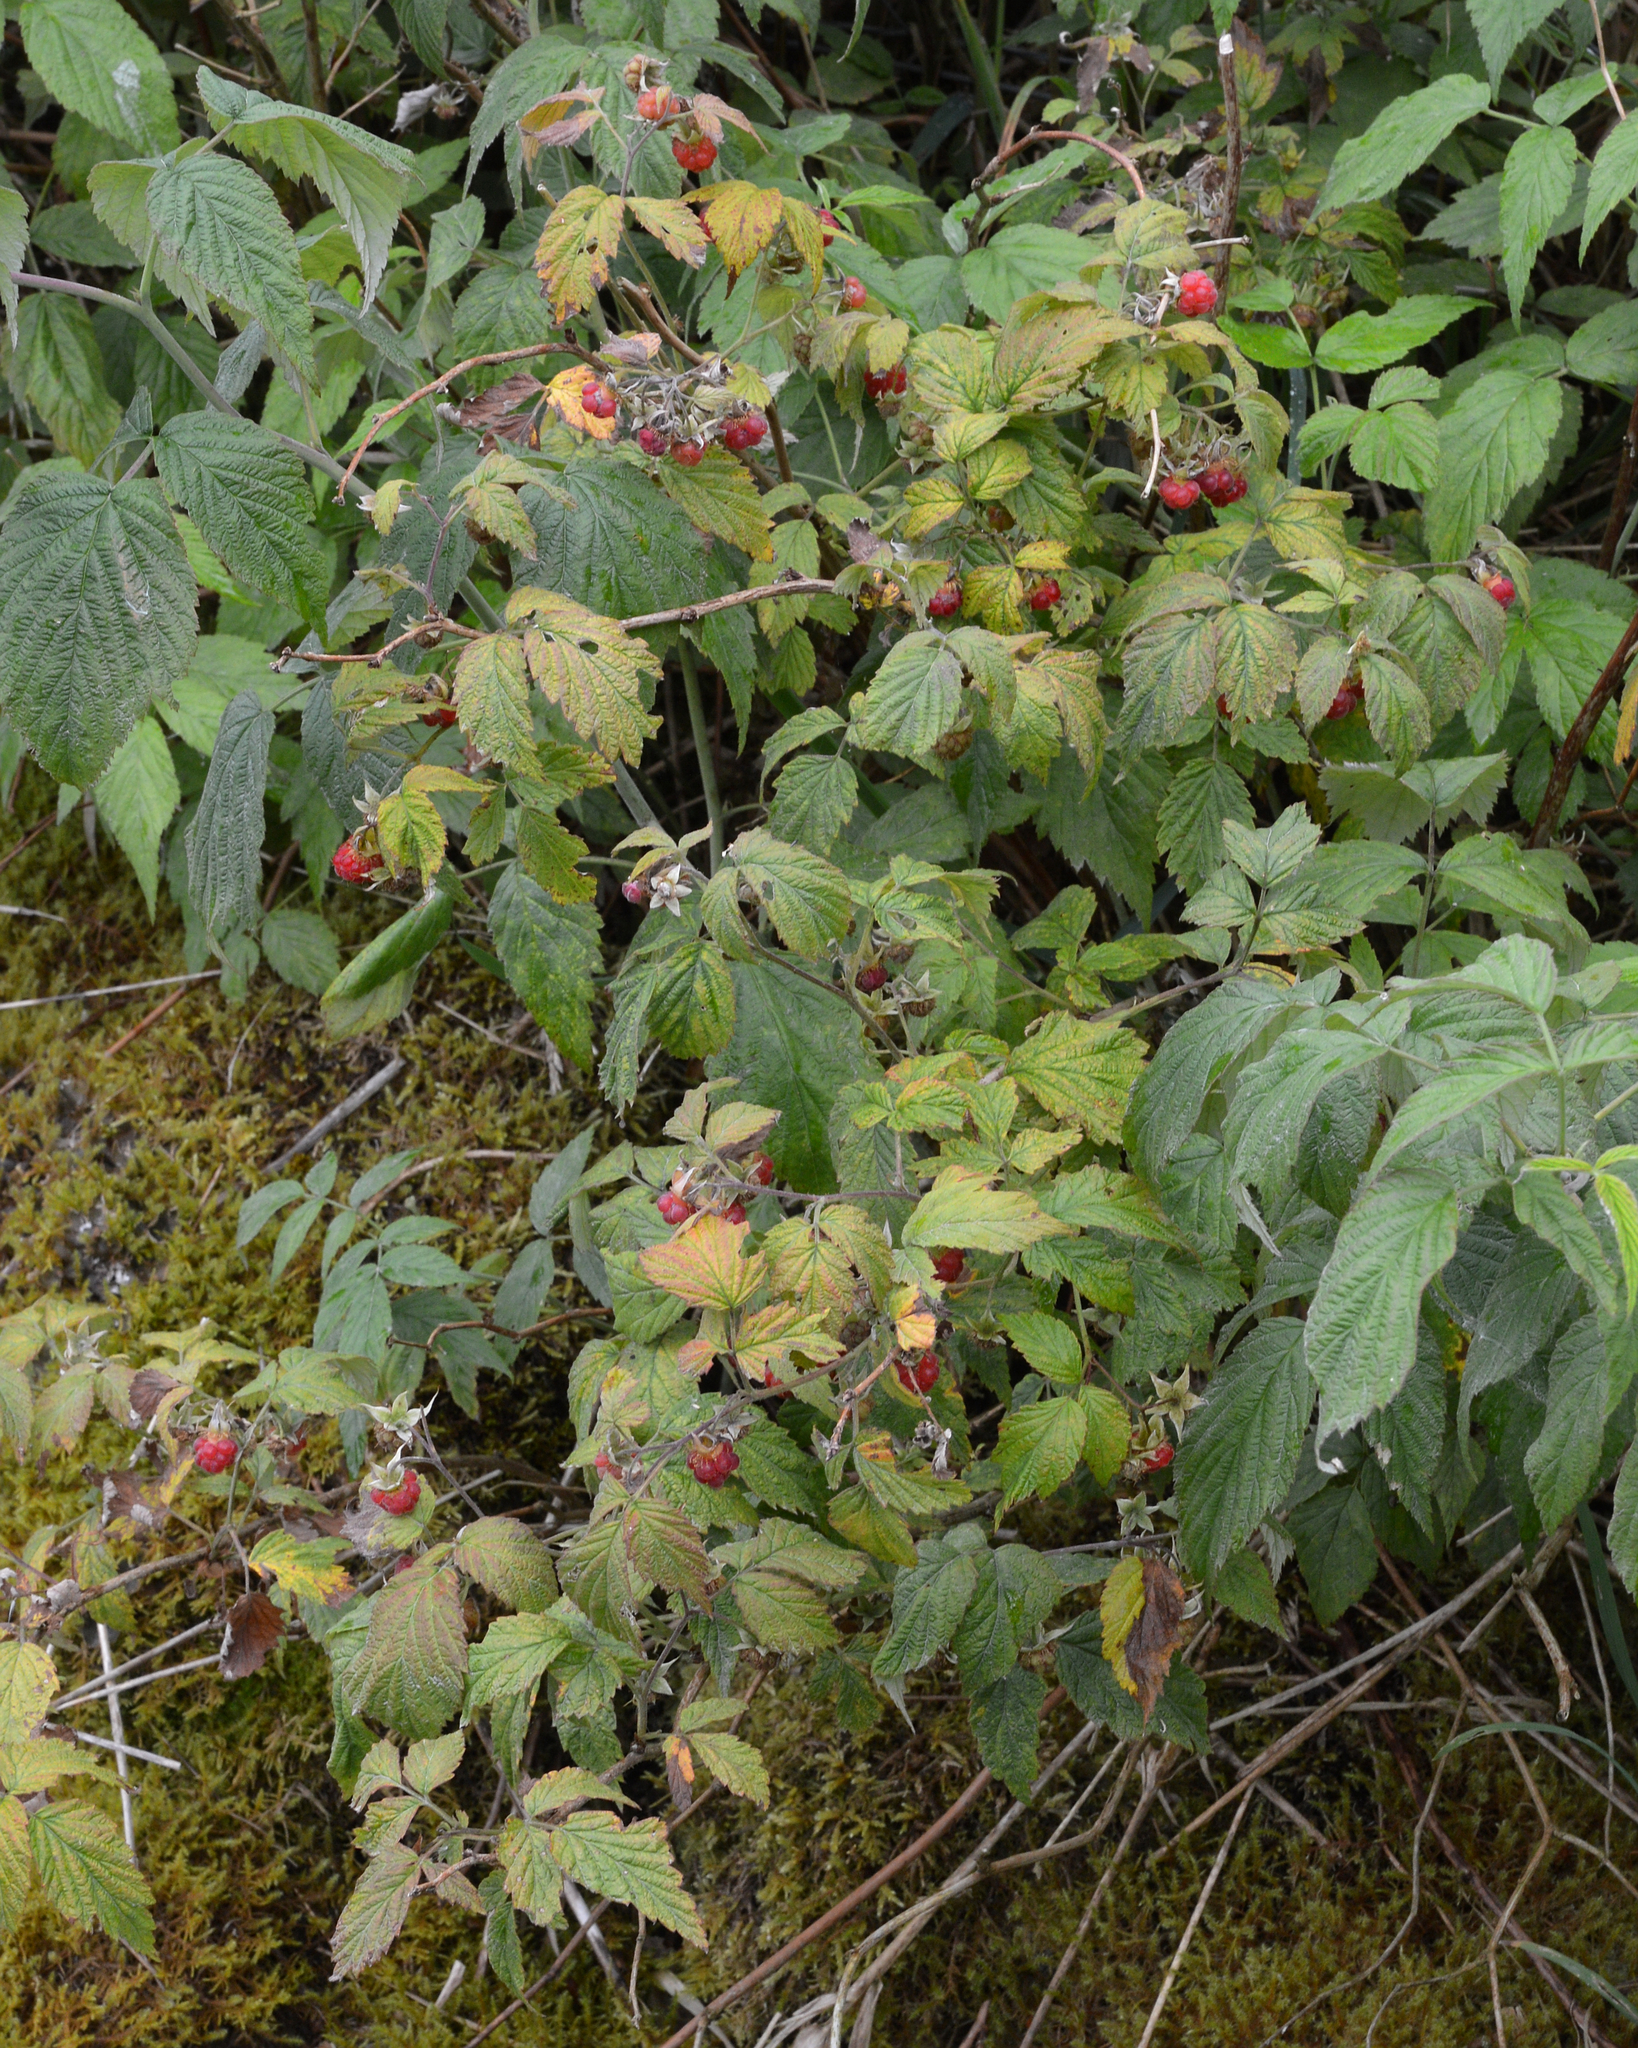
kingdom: Plantae
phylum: Tracheophyta
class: Magnoliopsida
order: Rosales
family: Rosaceae
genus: Rubus
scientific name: Rubus idaeus
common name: Raspberry
